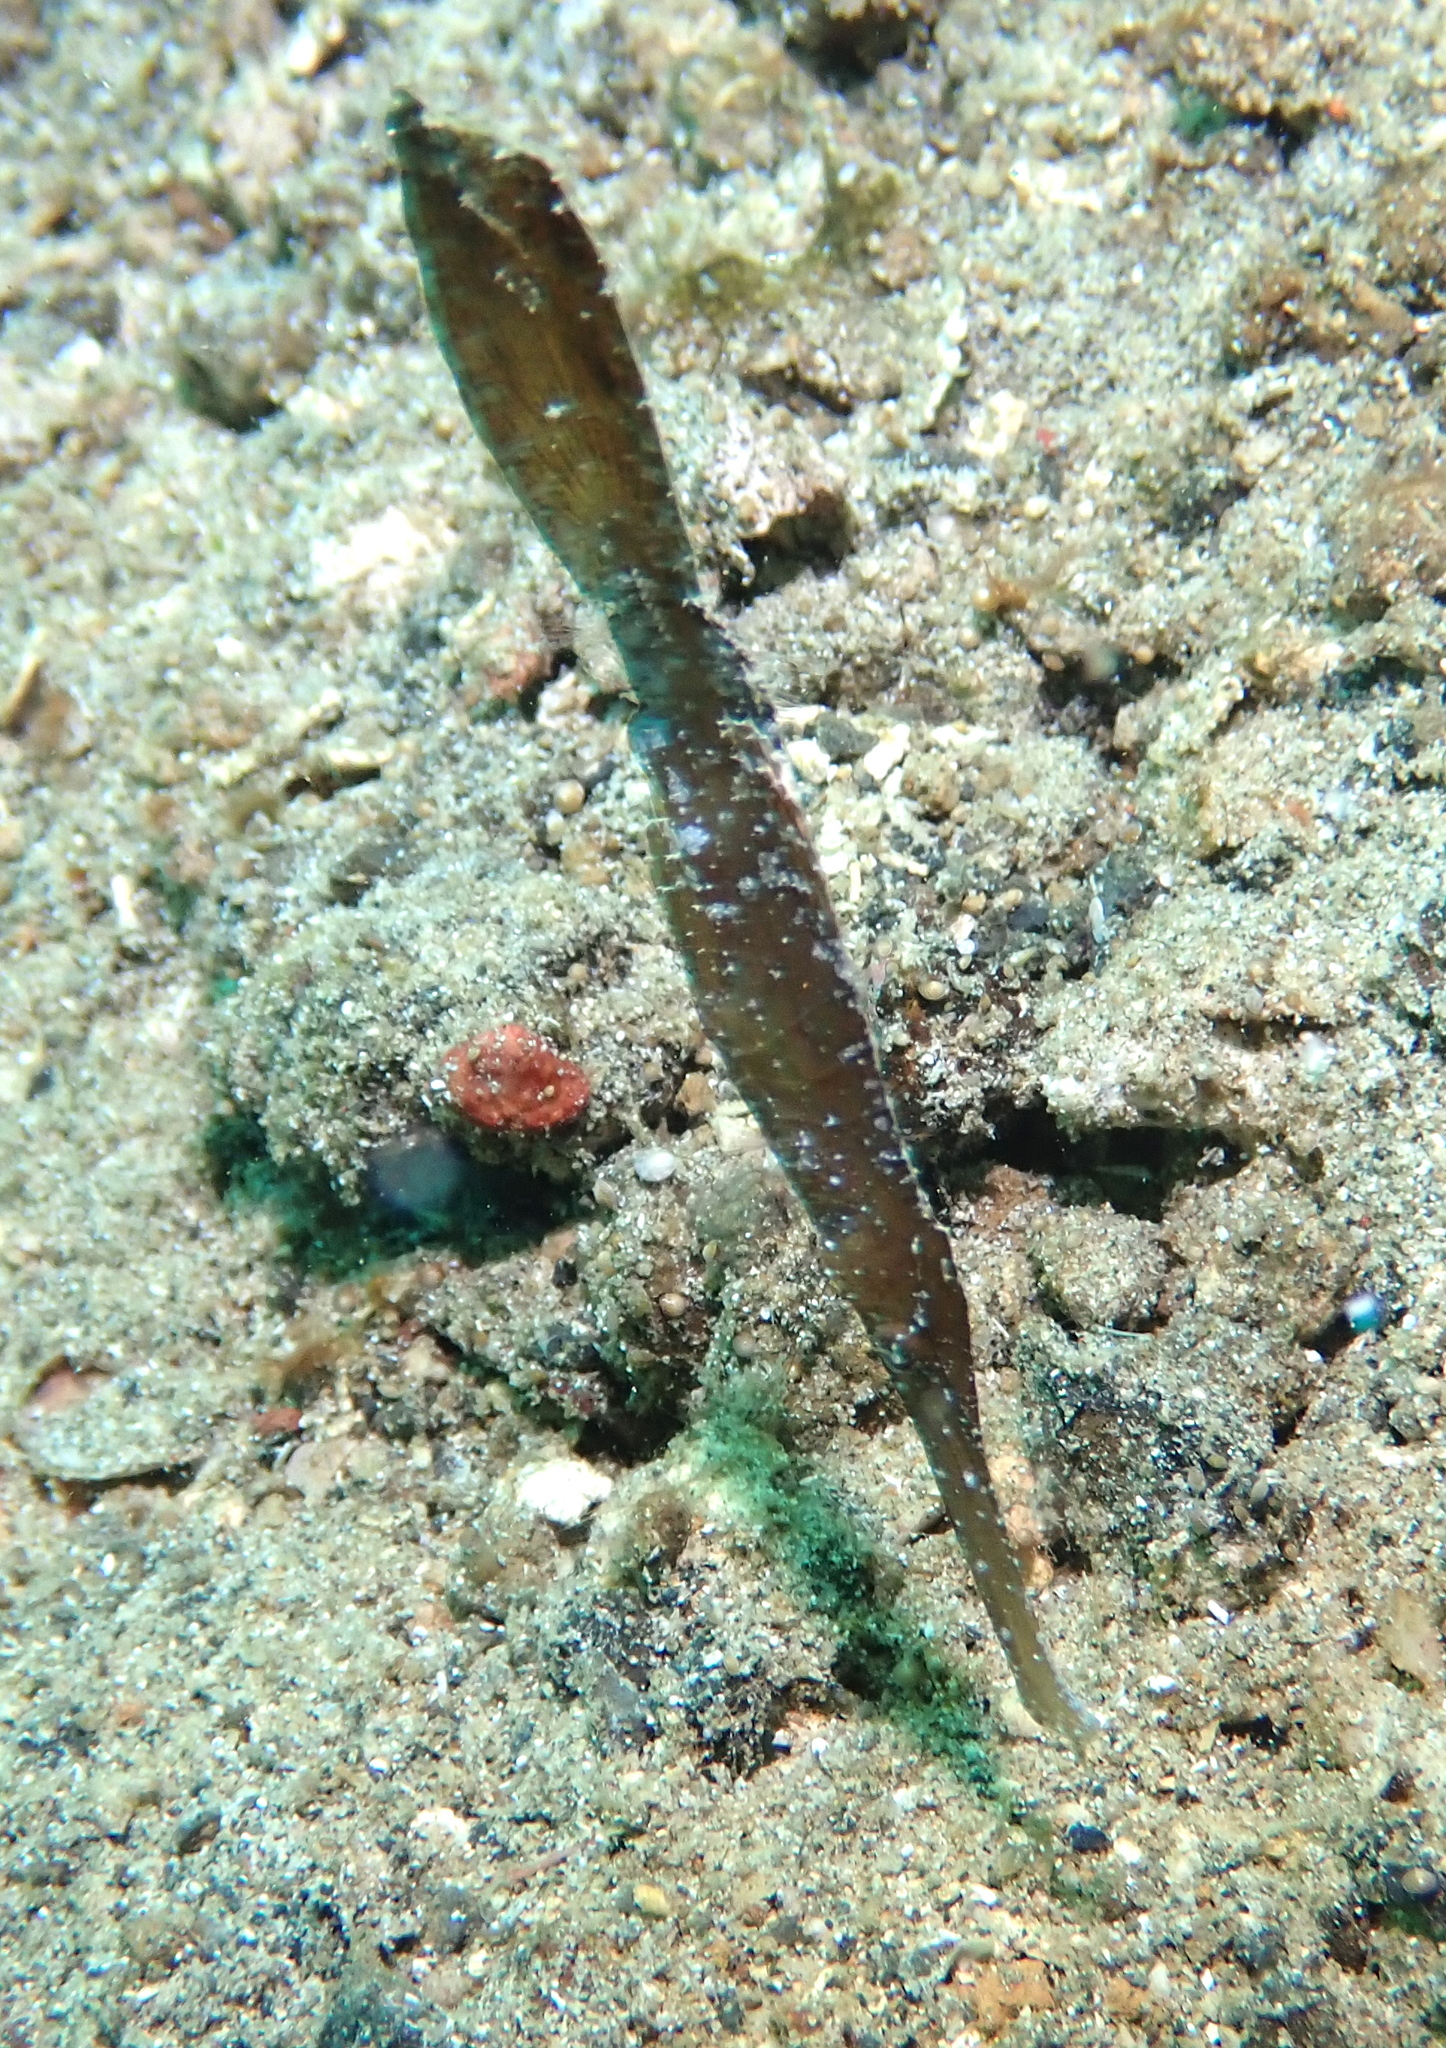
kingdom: Animalia
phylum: Chordata
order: Syngnathiformes
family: Solenostomidae
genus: Solenostomus
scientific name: Solenostomus cyanopterus
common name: Blue-finned ghost pipefish
